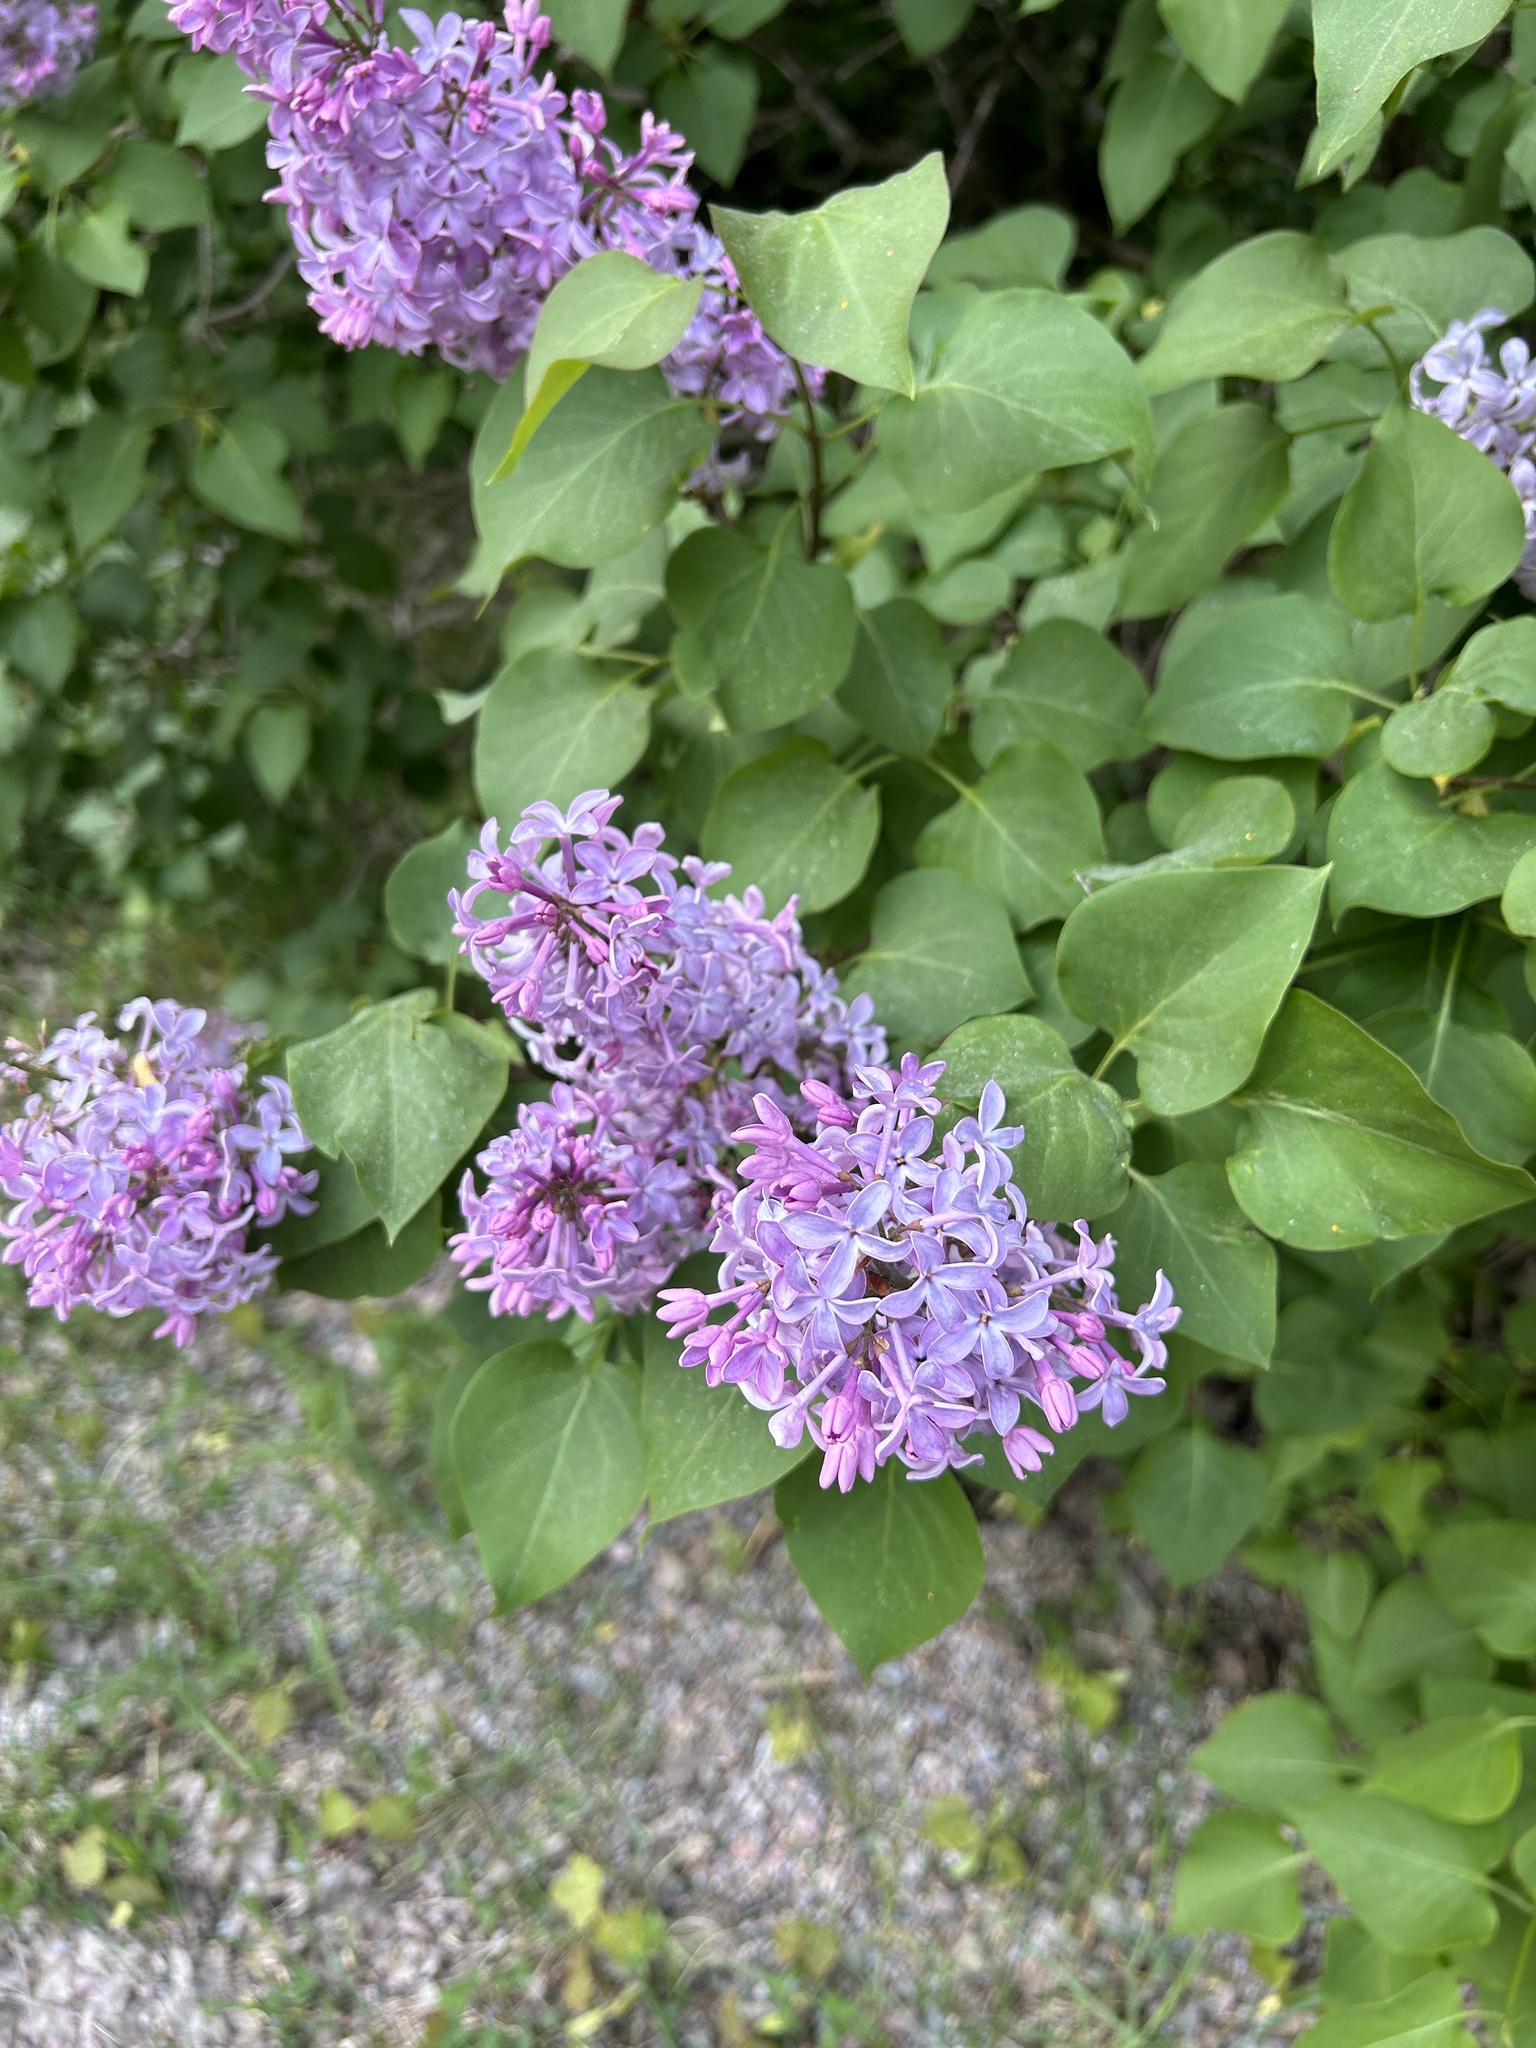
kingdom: Plantae
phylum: Tracheophyta
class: Magnoliopsida
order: Lamiales
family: Oleaceae
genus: Syringa
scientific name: Syringa vulgaris
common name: Common lilac
